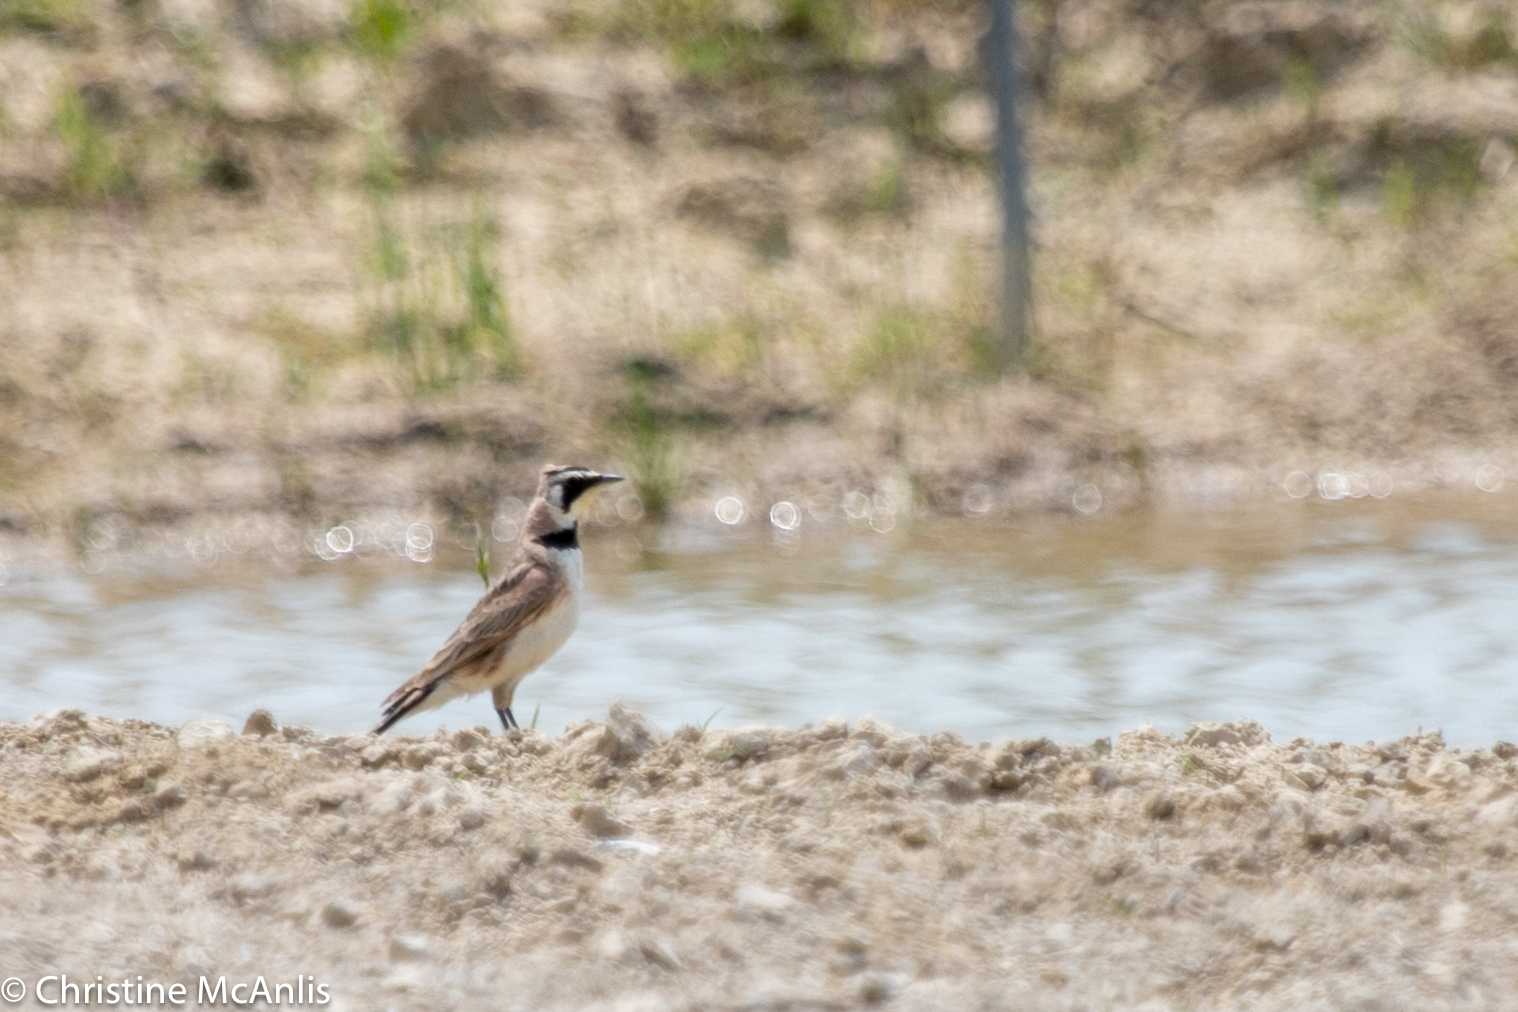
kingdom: Animalia
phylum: Chordata
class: Aves
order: Passeriformes
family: Alaudidae
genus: Eremophila
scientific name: Eremophila alpestris
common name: Horned lark
